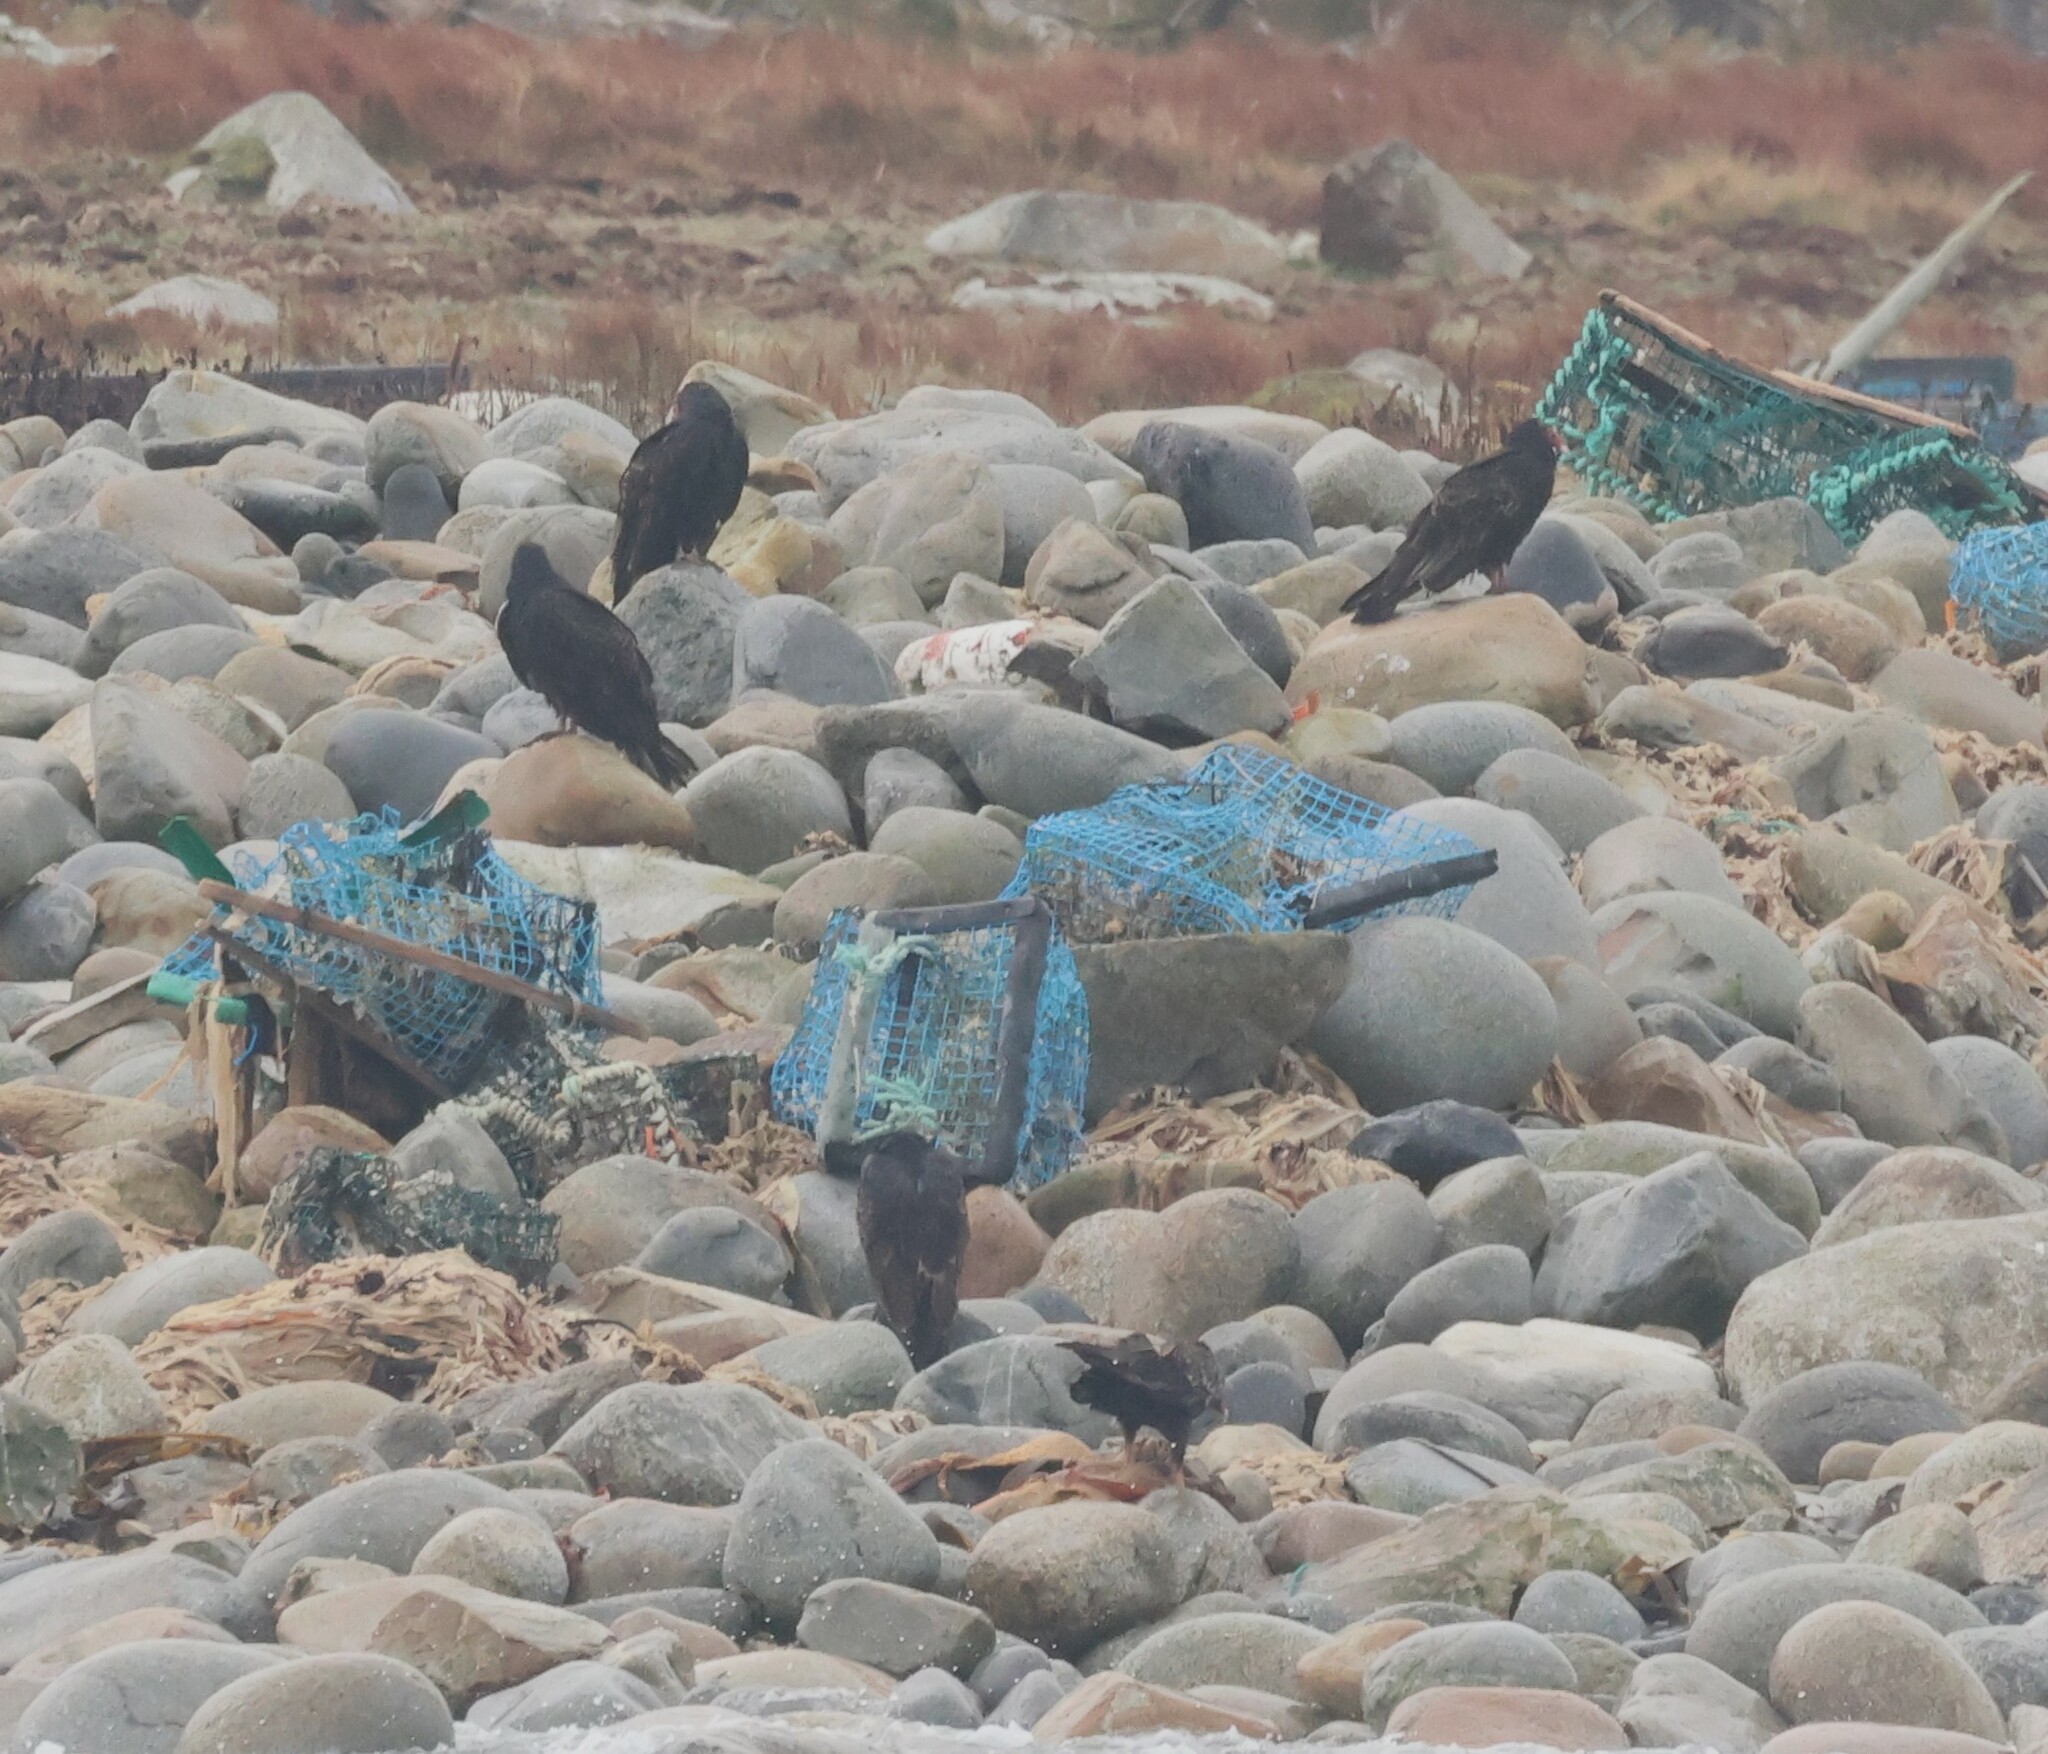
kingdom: Animalia
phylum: Chordata
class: Aves
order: Accipitriformes
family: Cathartidae
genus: Cathartes
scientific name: Cathartes aura
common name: Turkey vulture
